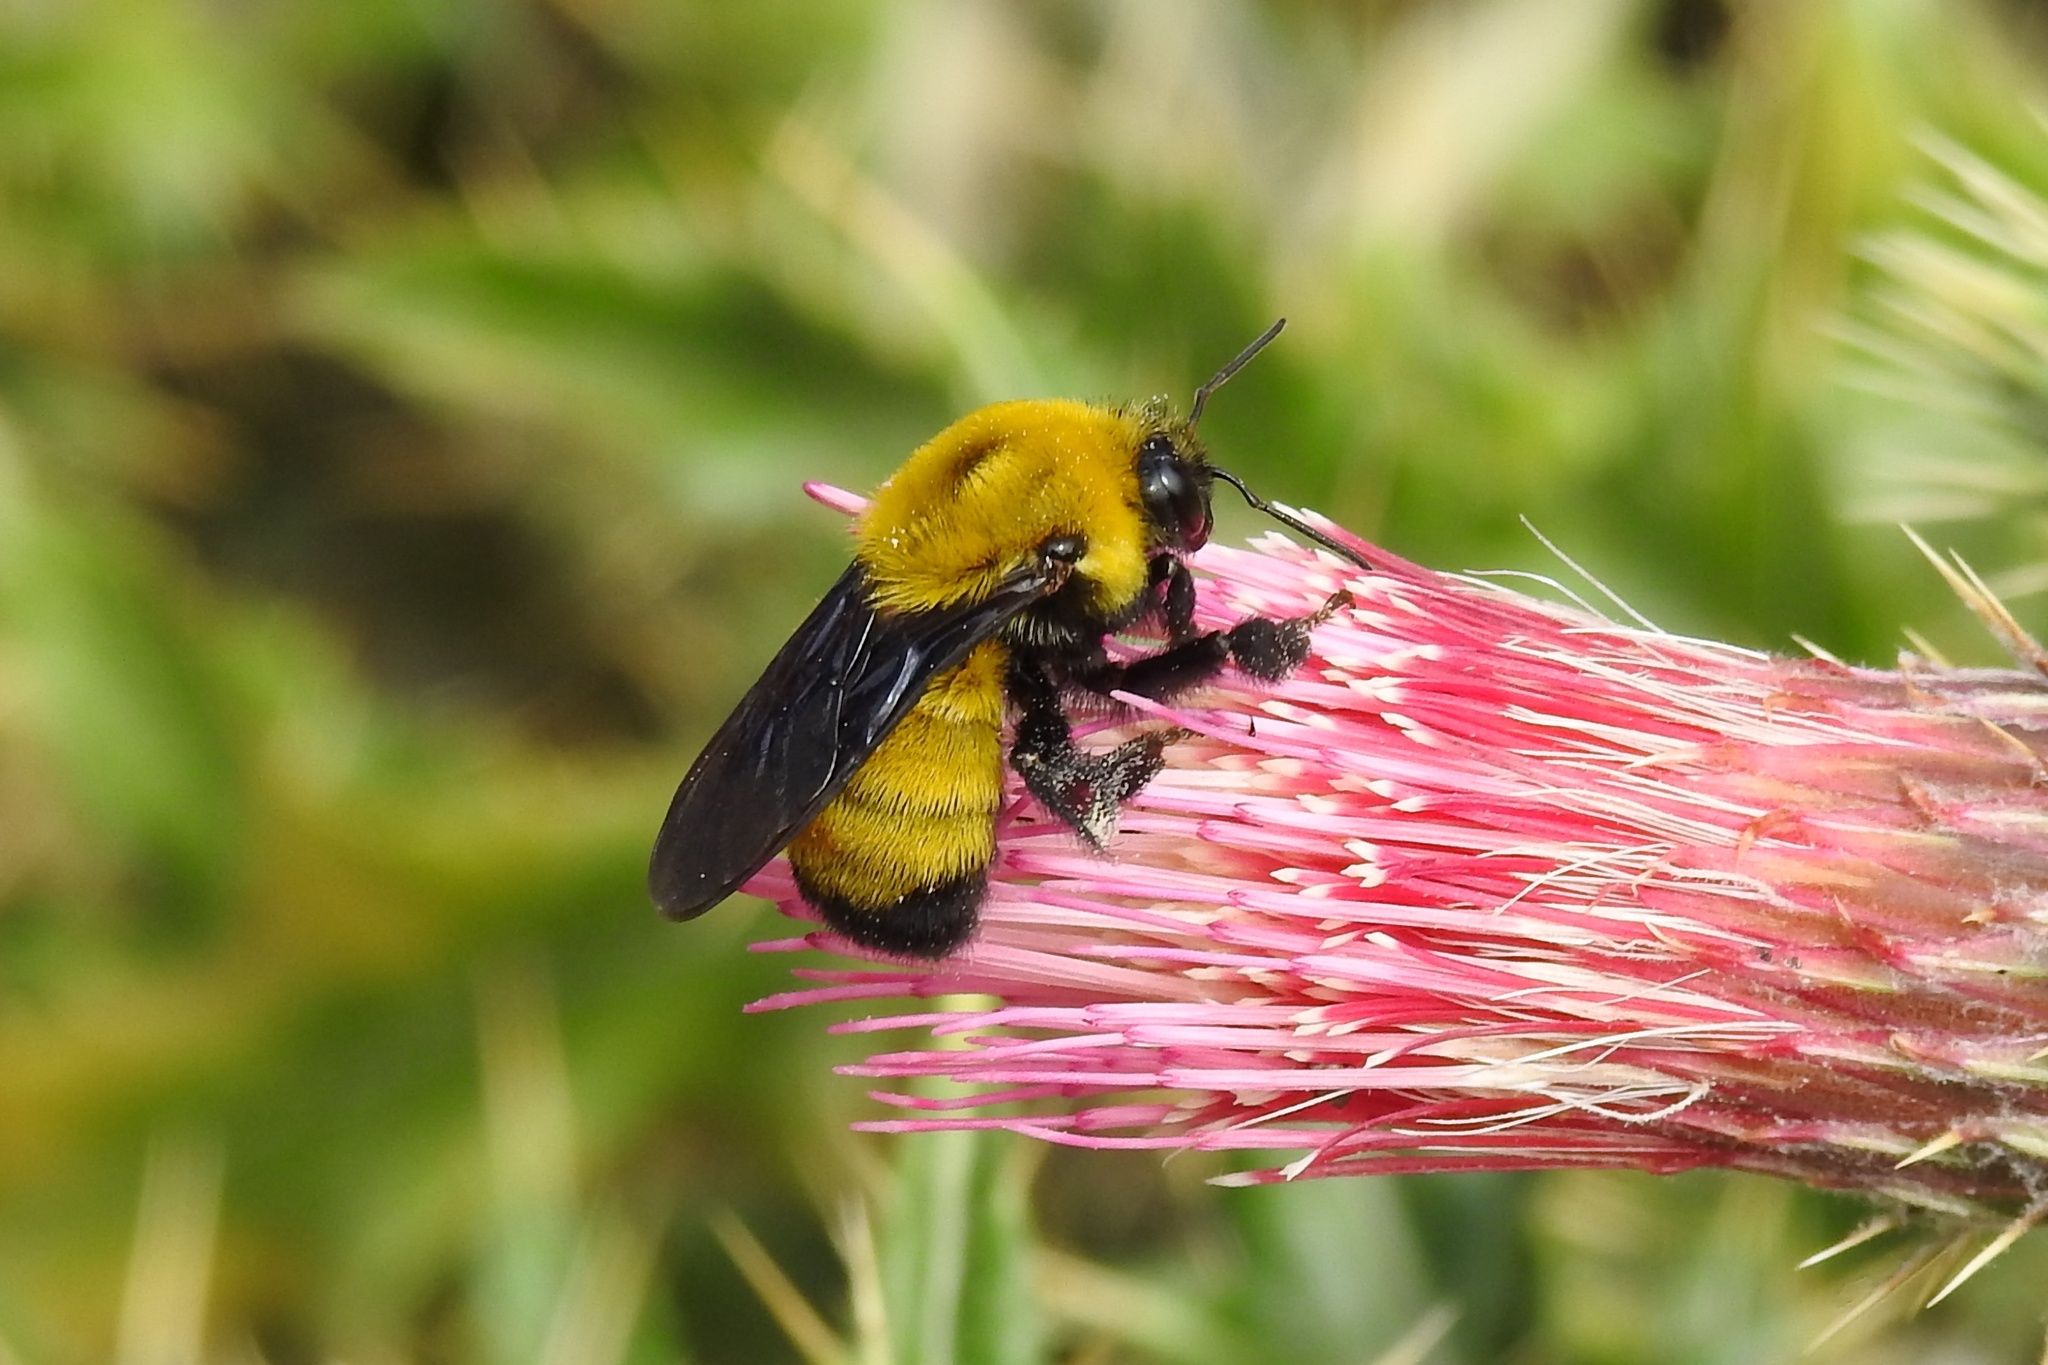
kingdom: Animalia
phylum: Arthropoda
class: Insecta
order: Hymenoptera
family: Apidae
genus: Bombus
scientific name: Bombus morrisoni
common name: Morrison bumble bee
